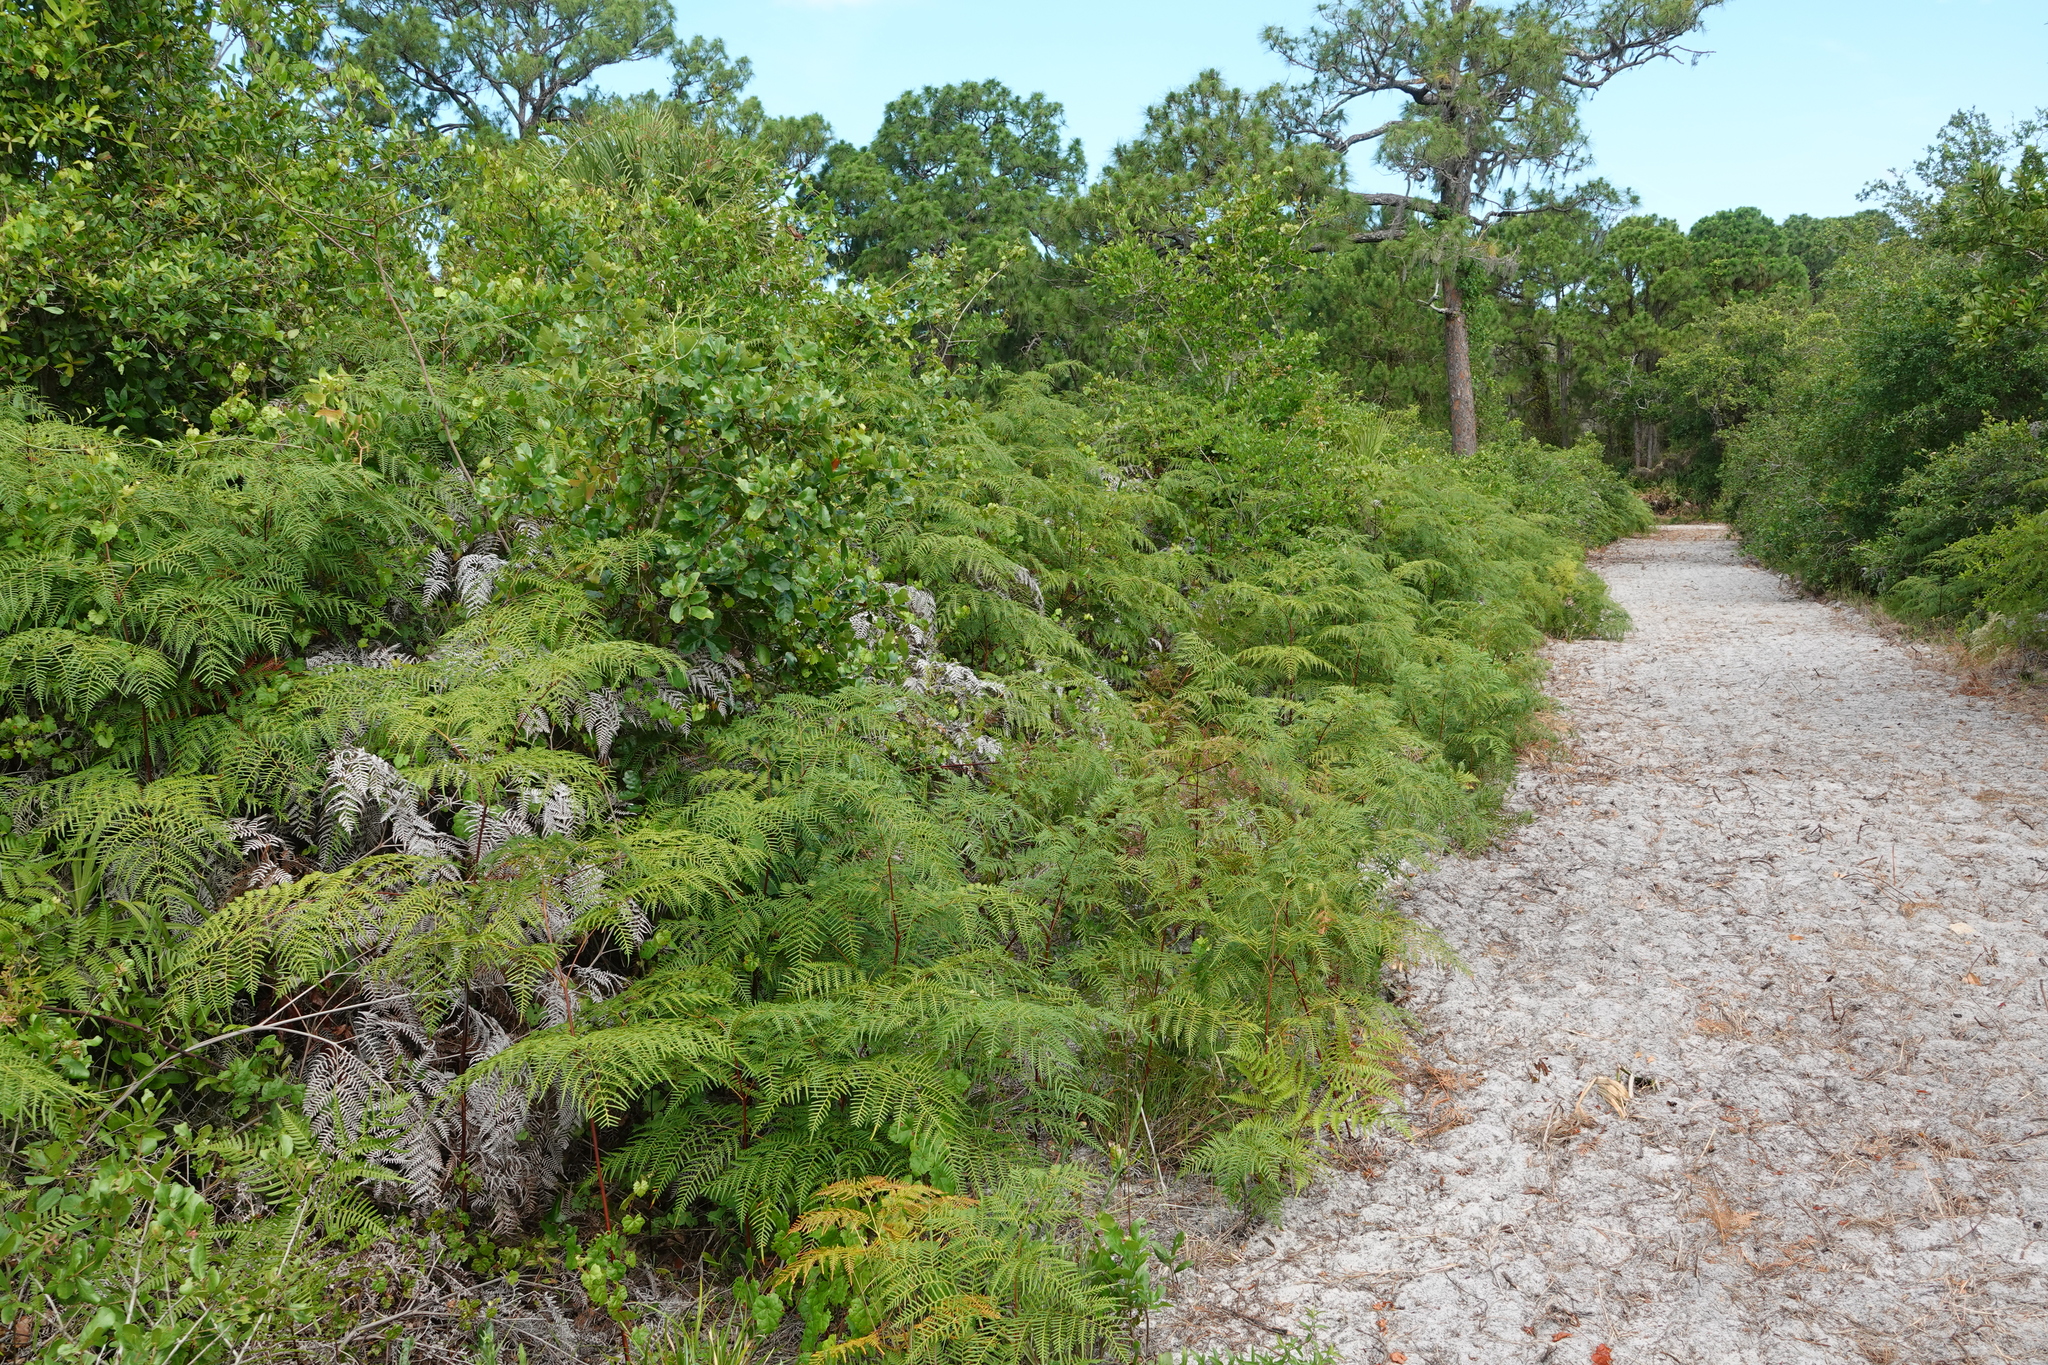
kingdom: Plantae
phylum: Tracheophyta
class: Magnoliopsida
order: Asterales
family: Asteraceae
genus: Pityopsis
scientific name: Pityopsis graminifolia
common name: Grass-leaf golden-aster
